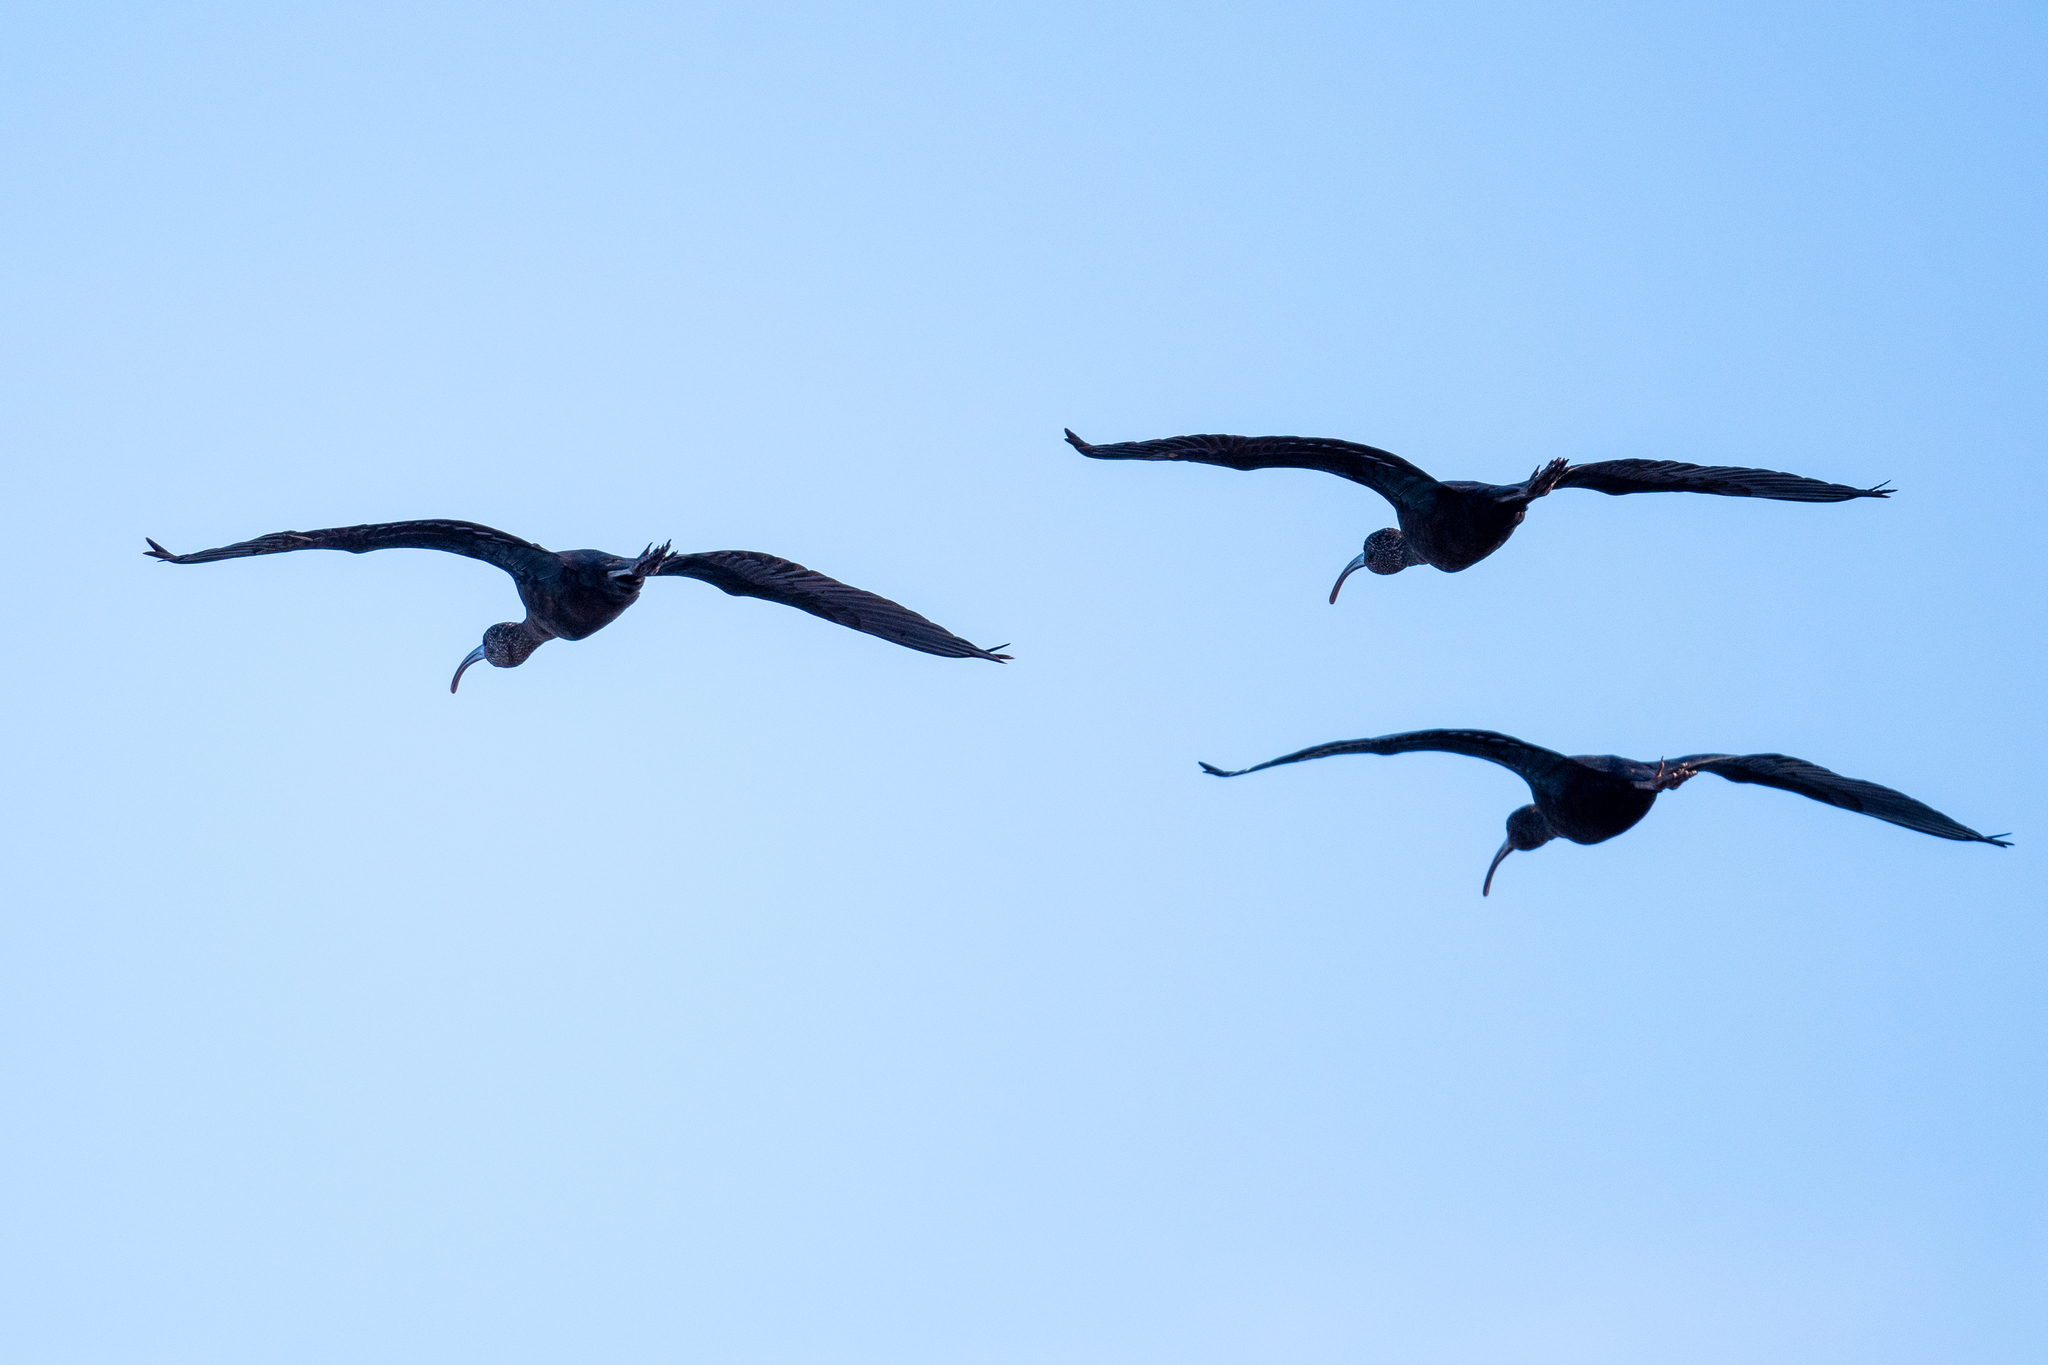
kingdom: Animalia
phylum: Chordata
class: Aves
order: Pelecaniformes
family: Threskiornithidae
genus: Plegadis
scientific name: Plegadis chihi
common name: White-faced ibis
